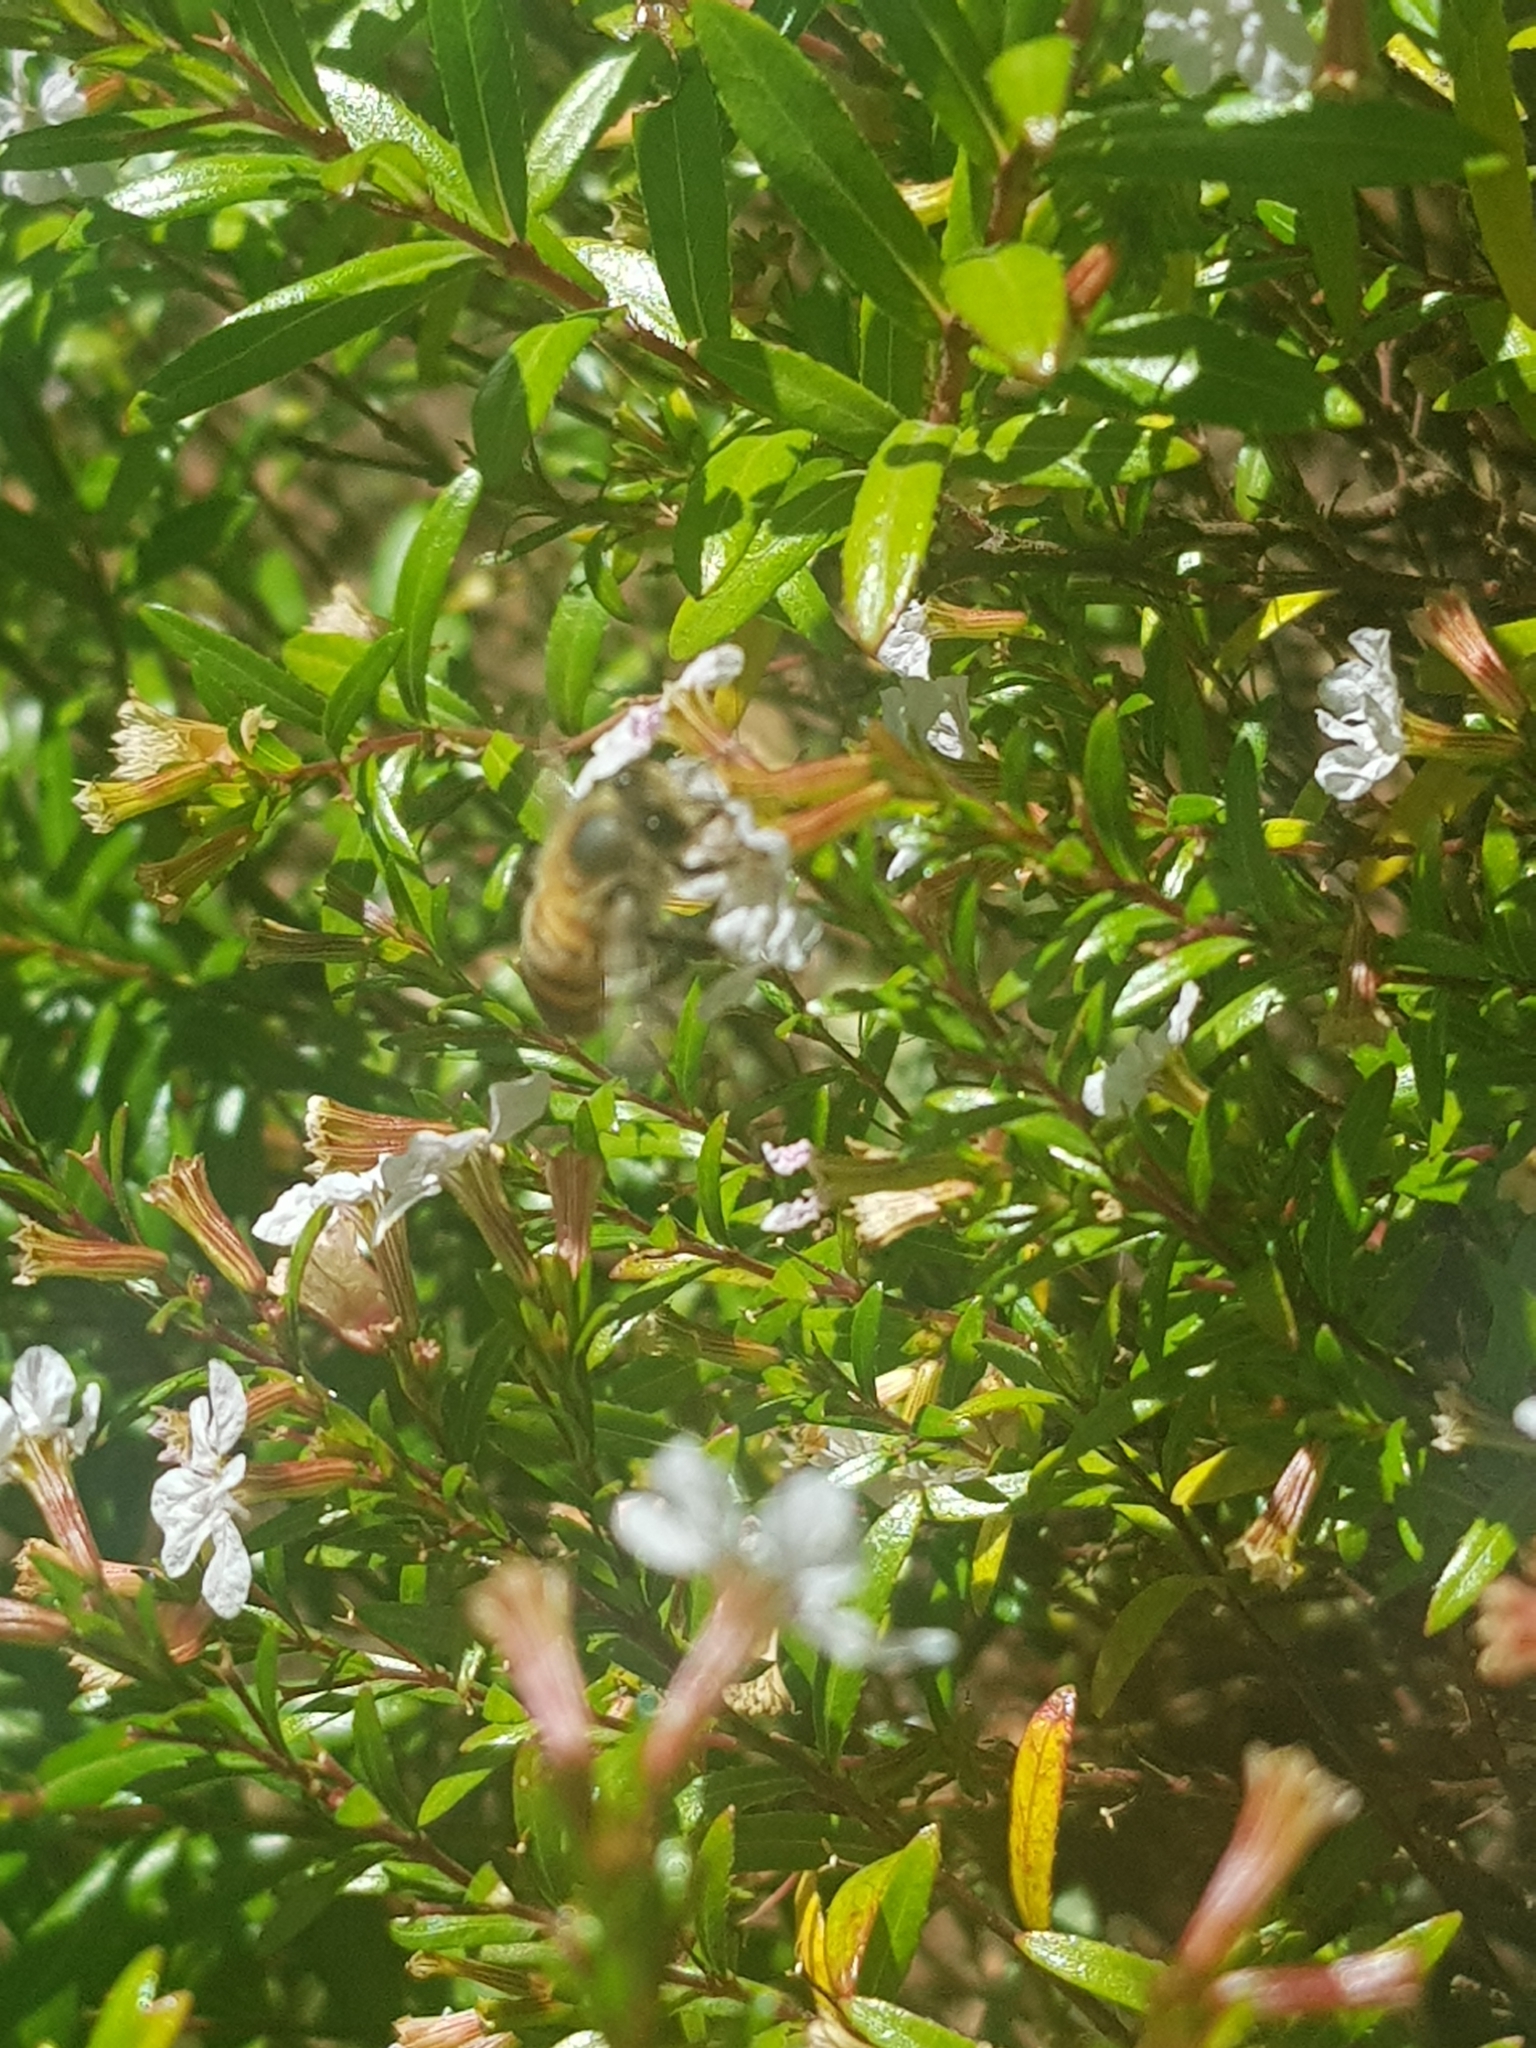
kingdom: Animalia
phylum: Arthropoda
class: Insecta
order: Hymenoptera
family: Apidae
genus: Apis
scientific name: Apis mellifera
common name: Honey bee
